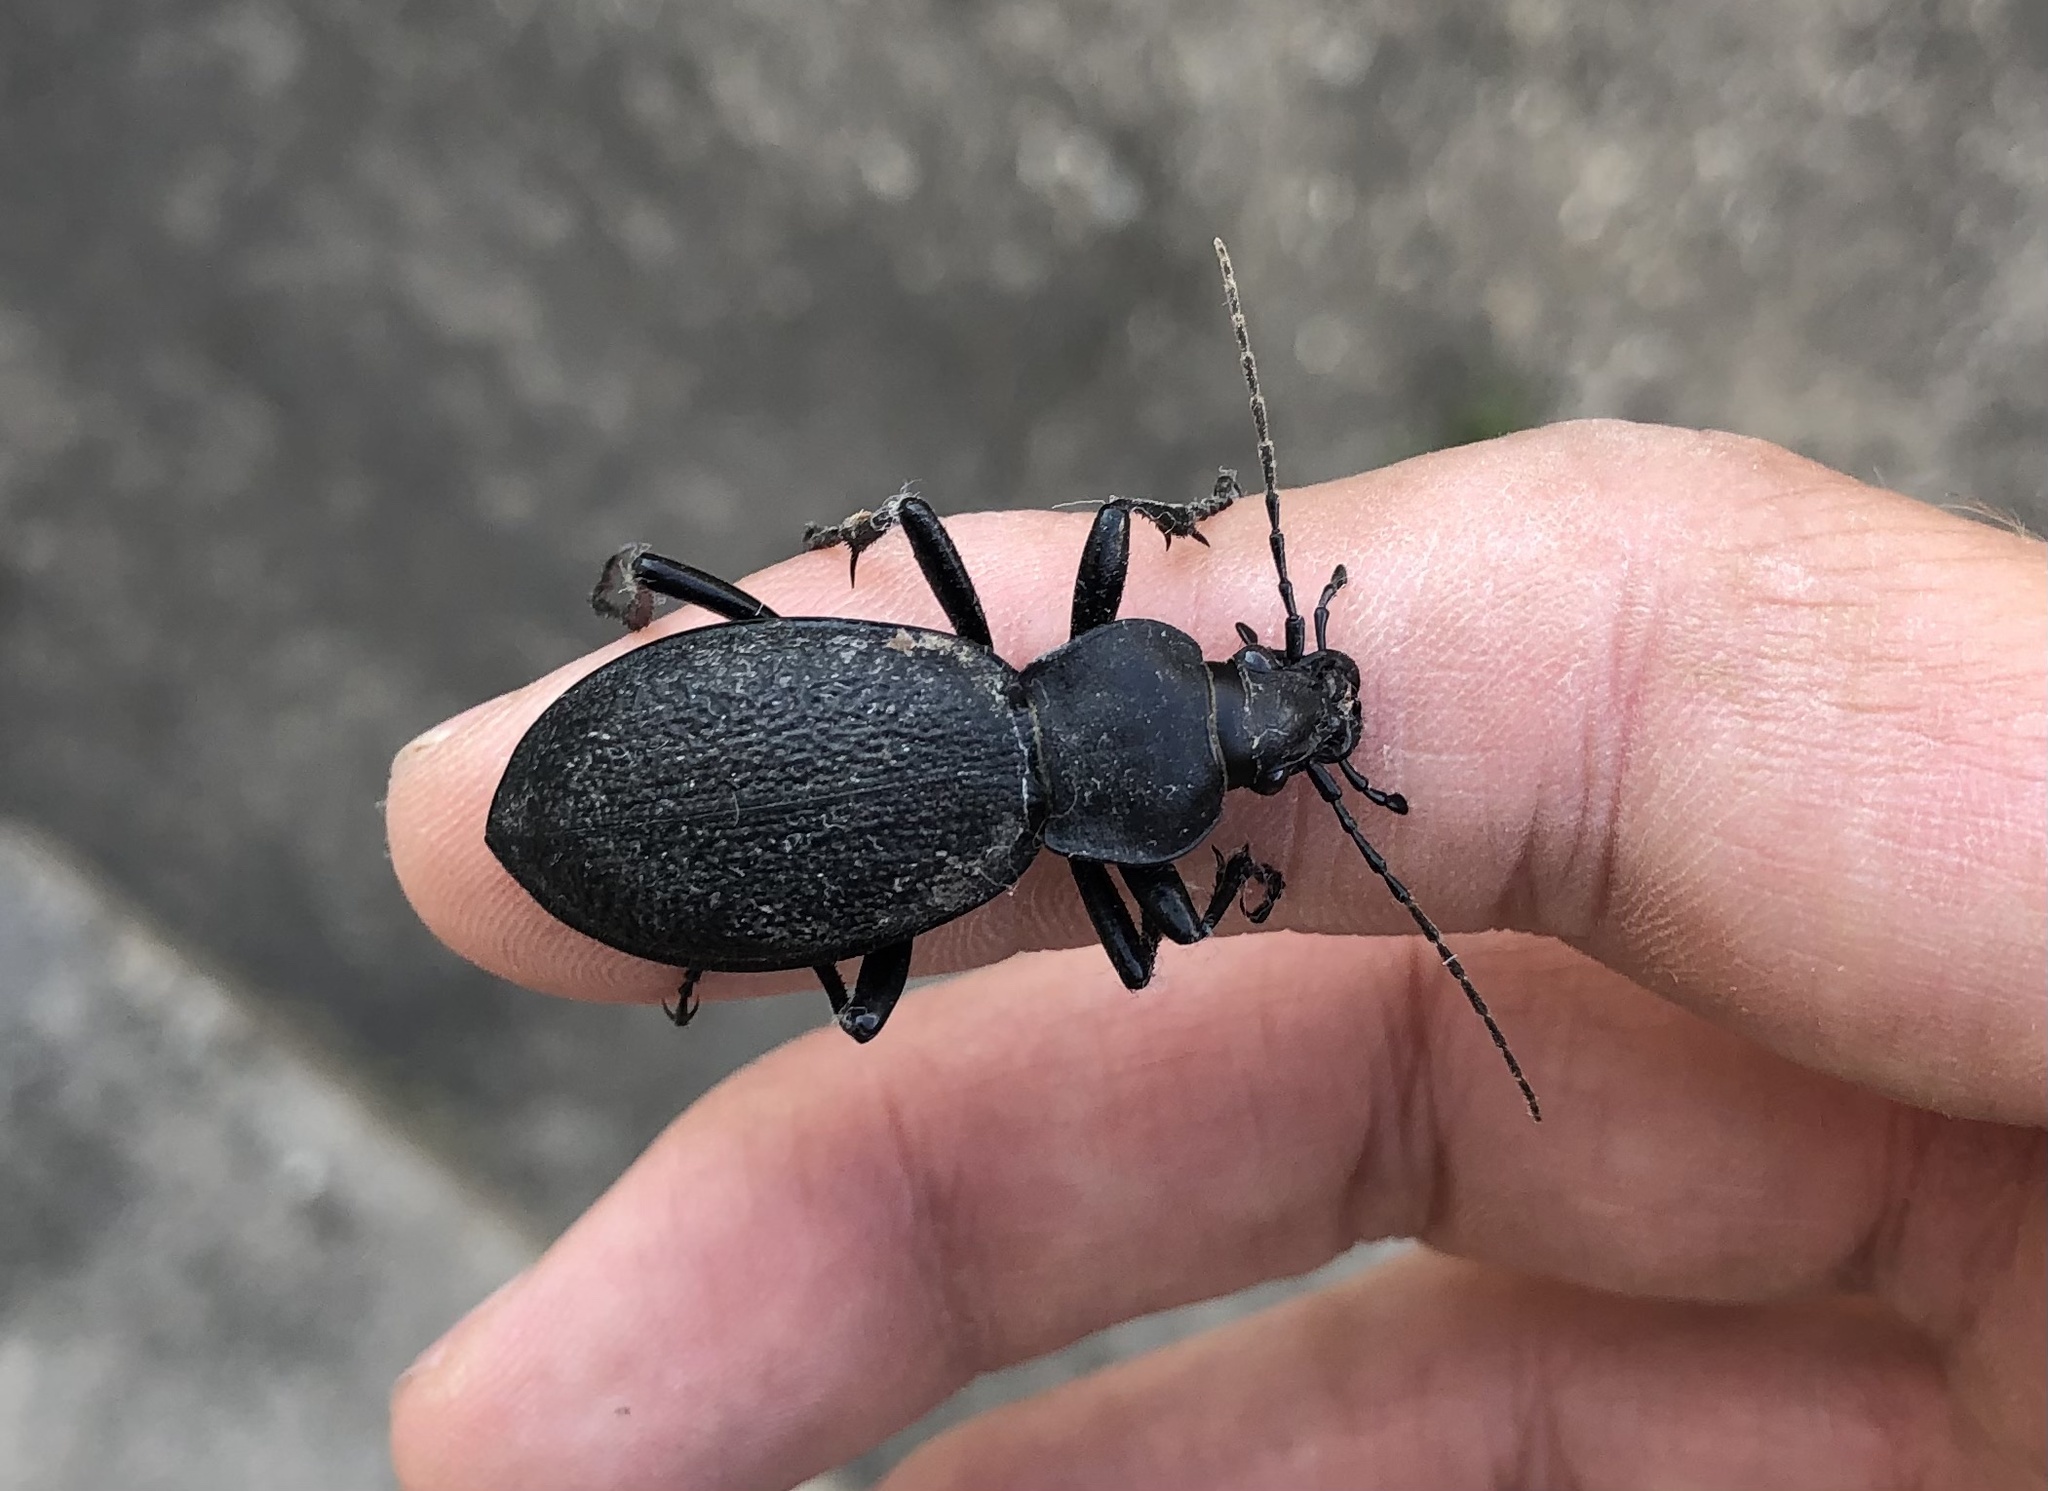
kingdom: Animalia
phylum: Arthropoda
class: Insecta
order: Coleoptera
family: Carabidae
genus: Carabus
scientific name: Carabus coriaceus
